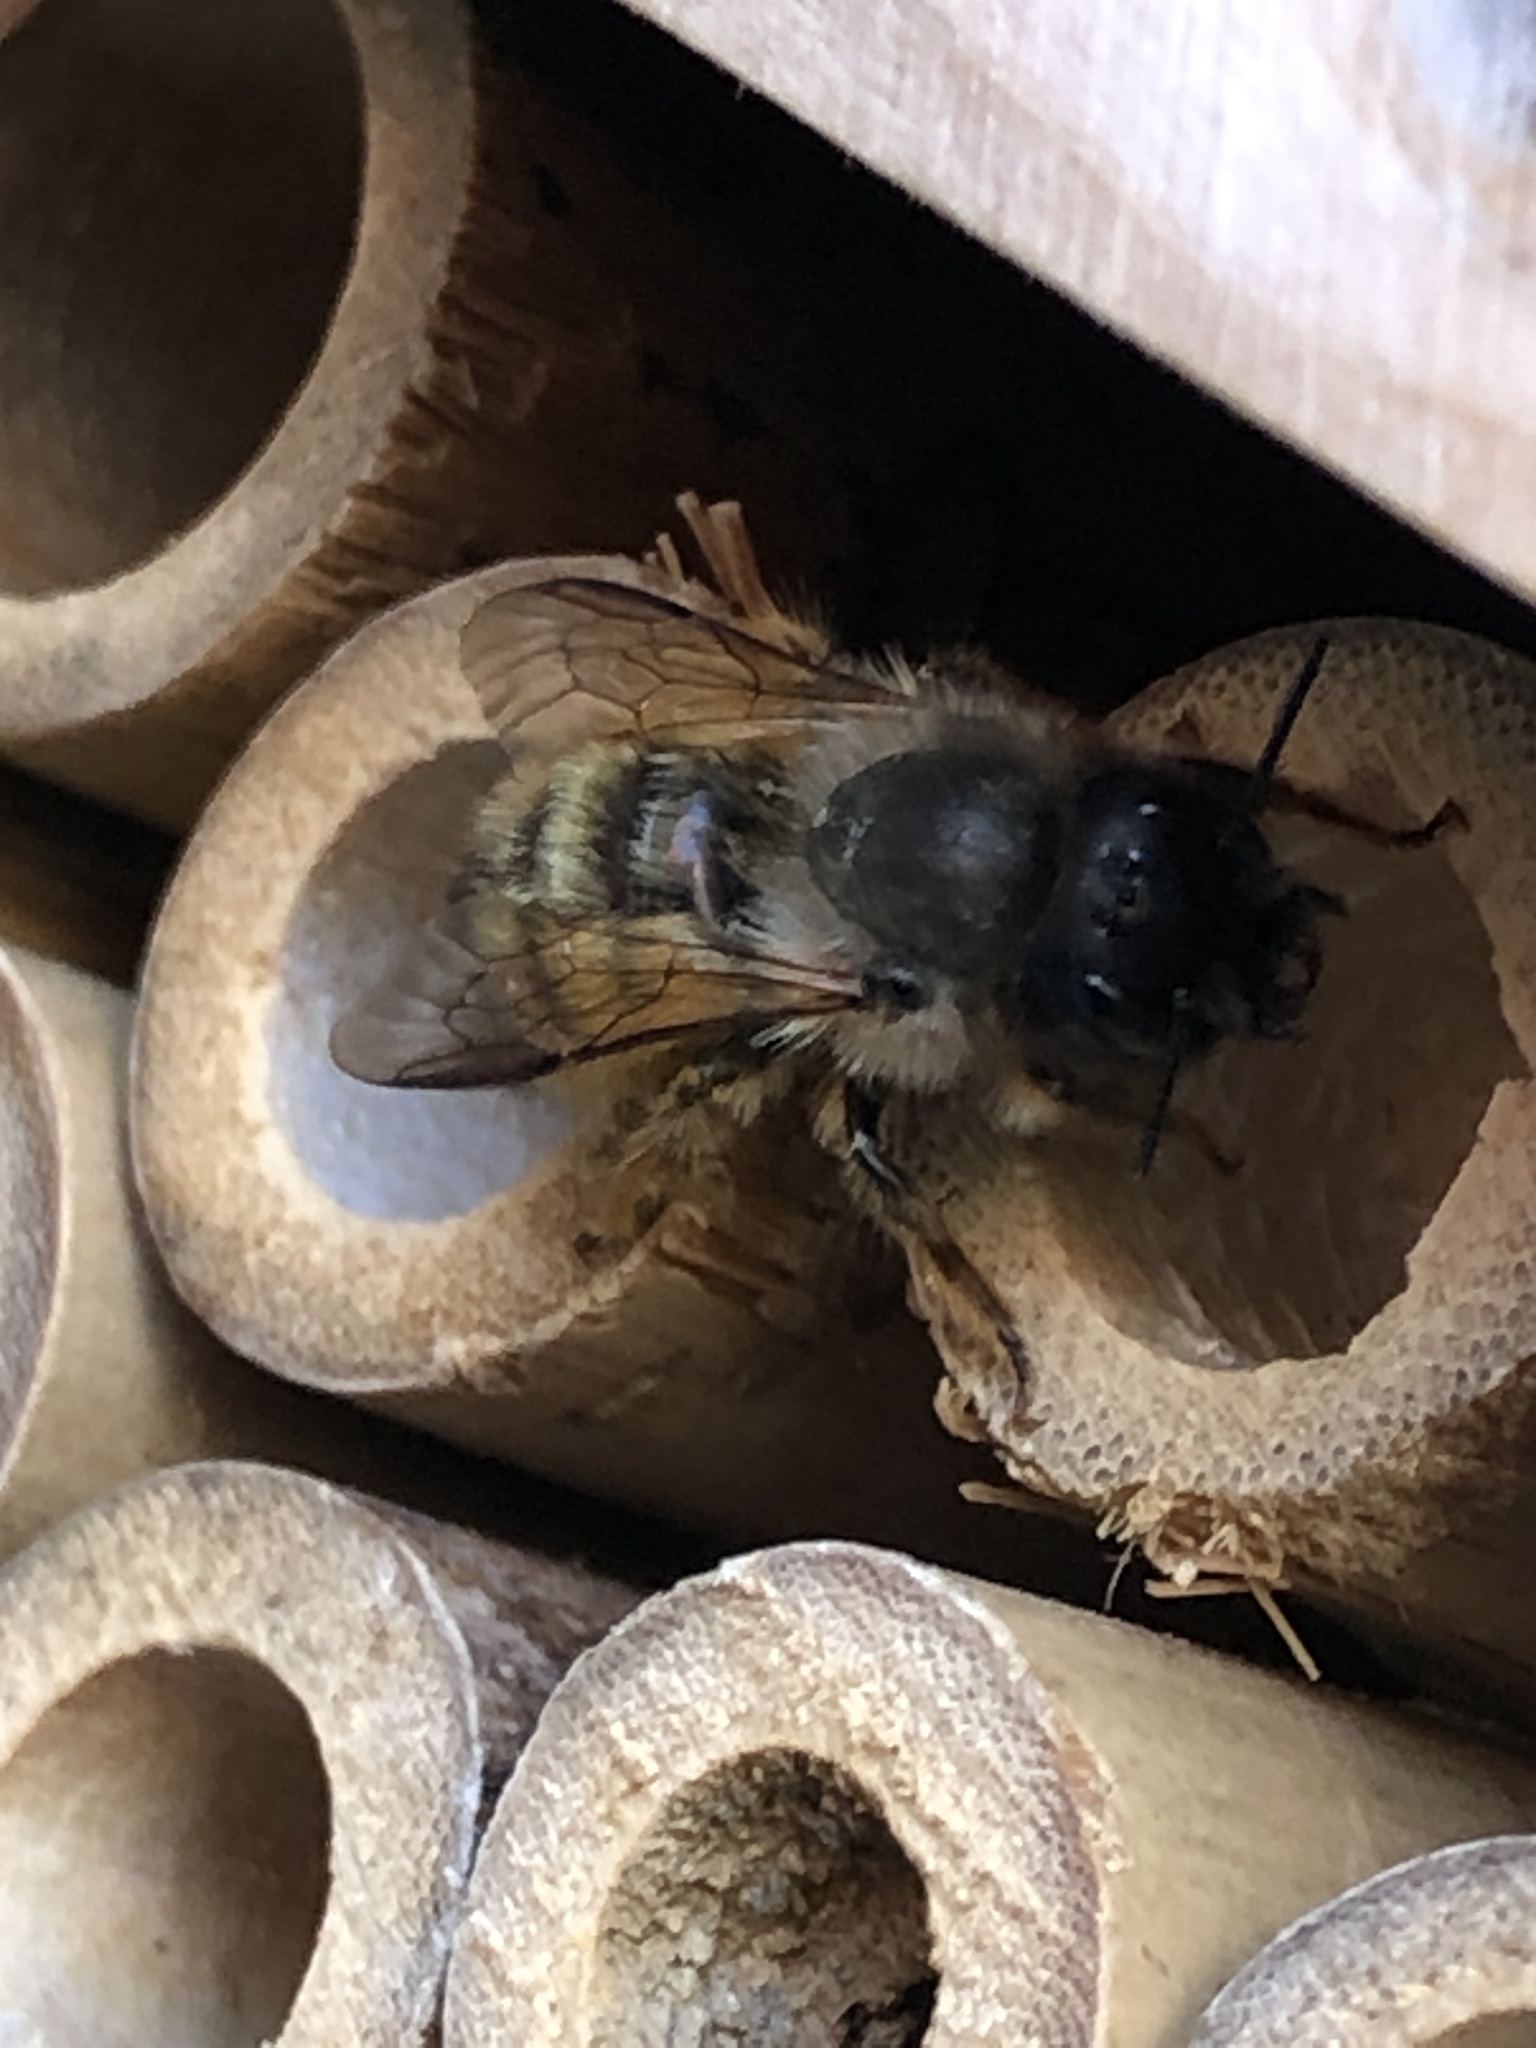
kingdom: Animalia
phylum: Arthropoda
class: Insecta
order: Hymenoptera
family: Megachilidae
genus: Osmia
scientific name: Osmia bicornis
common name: Red mason bee
